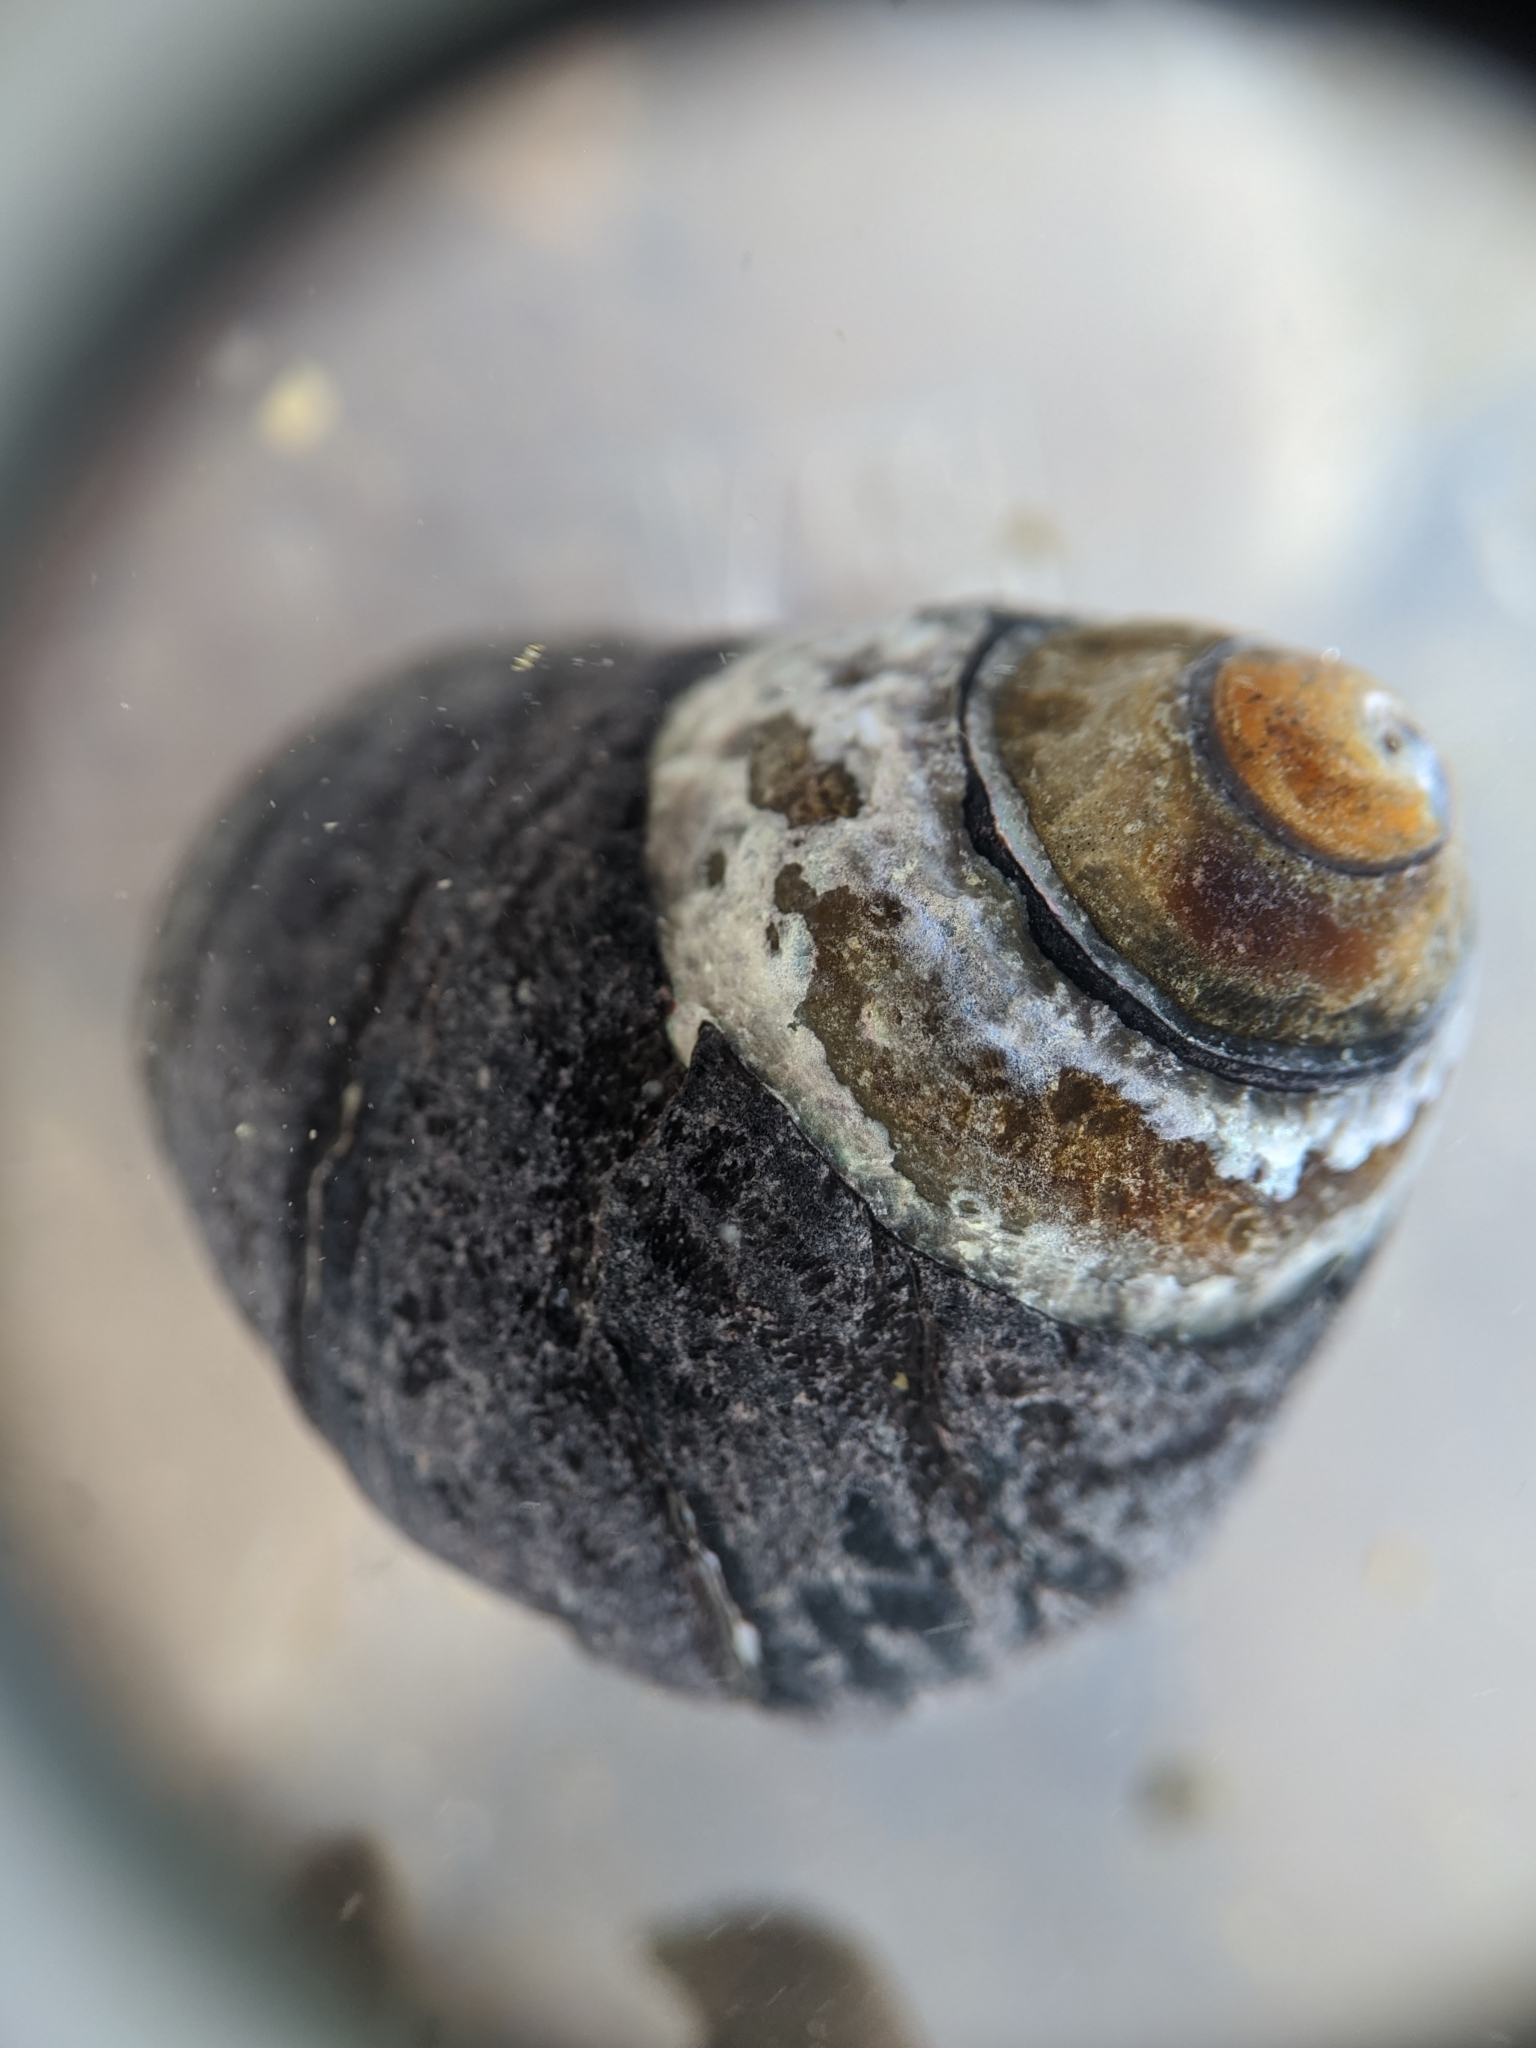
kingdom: Animalia
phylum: Mollusca
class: Gastropoda
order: Trochida
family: Tegulidae
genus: Tegula
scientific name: Tegula funebralis
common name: Black tegula
